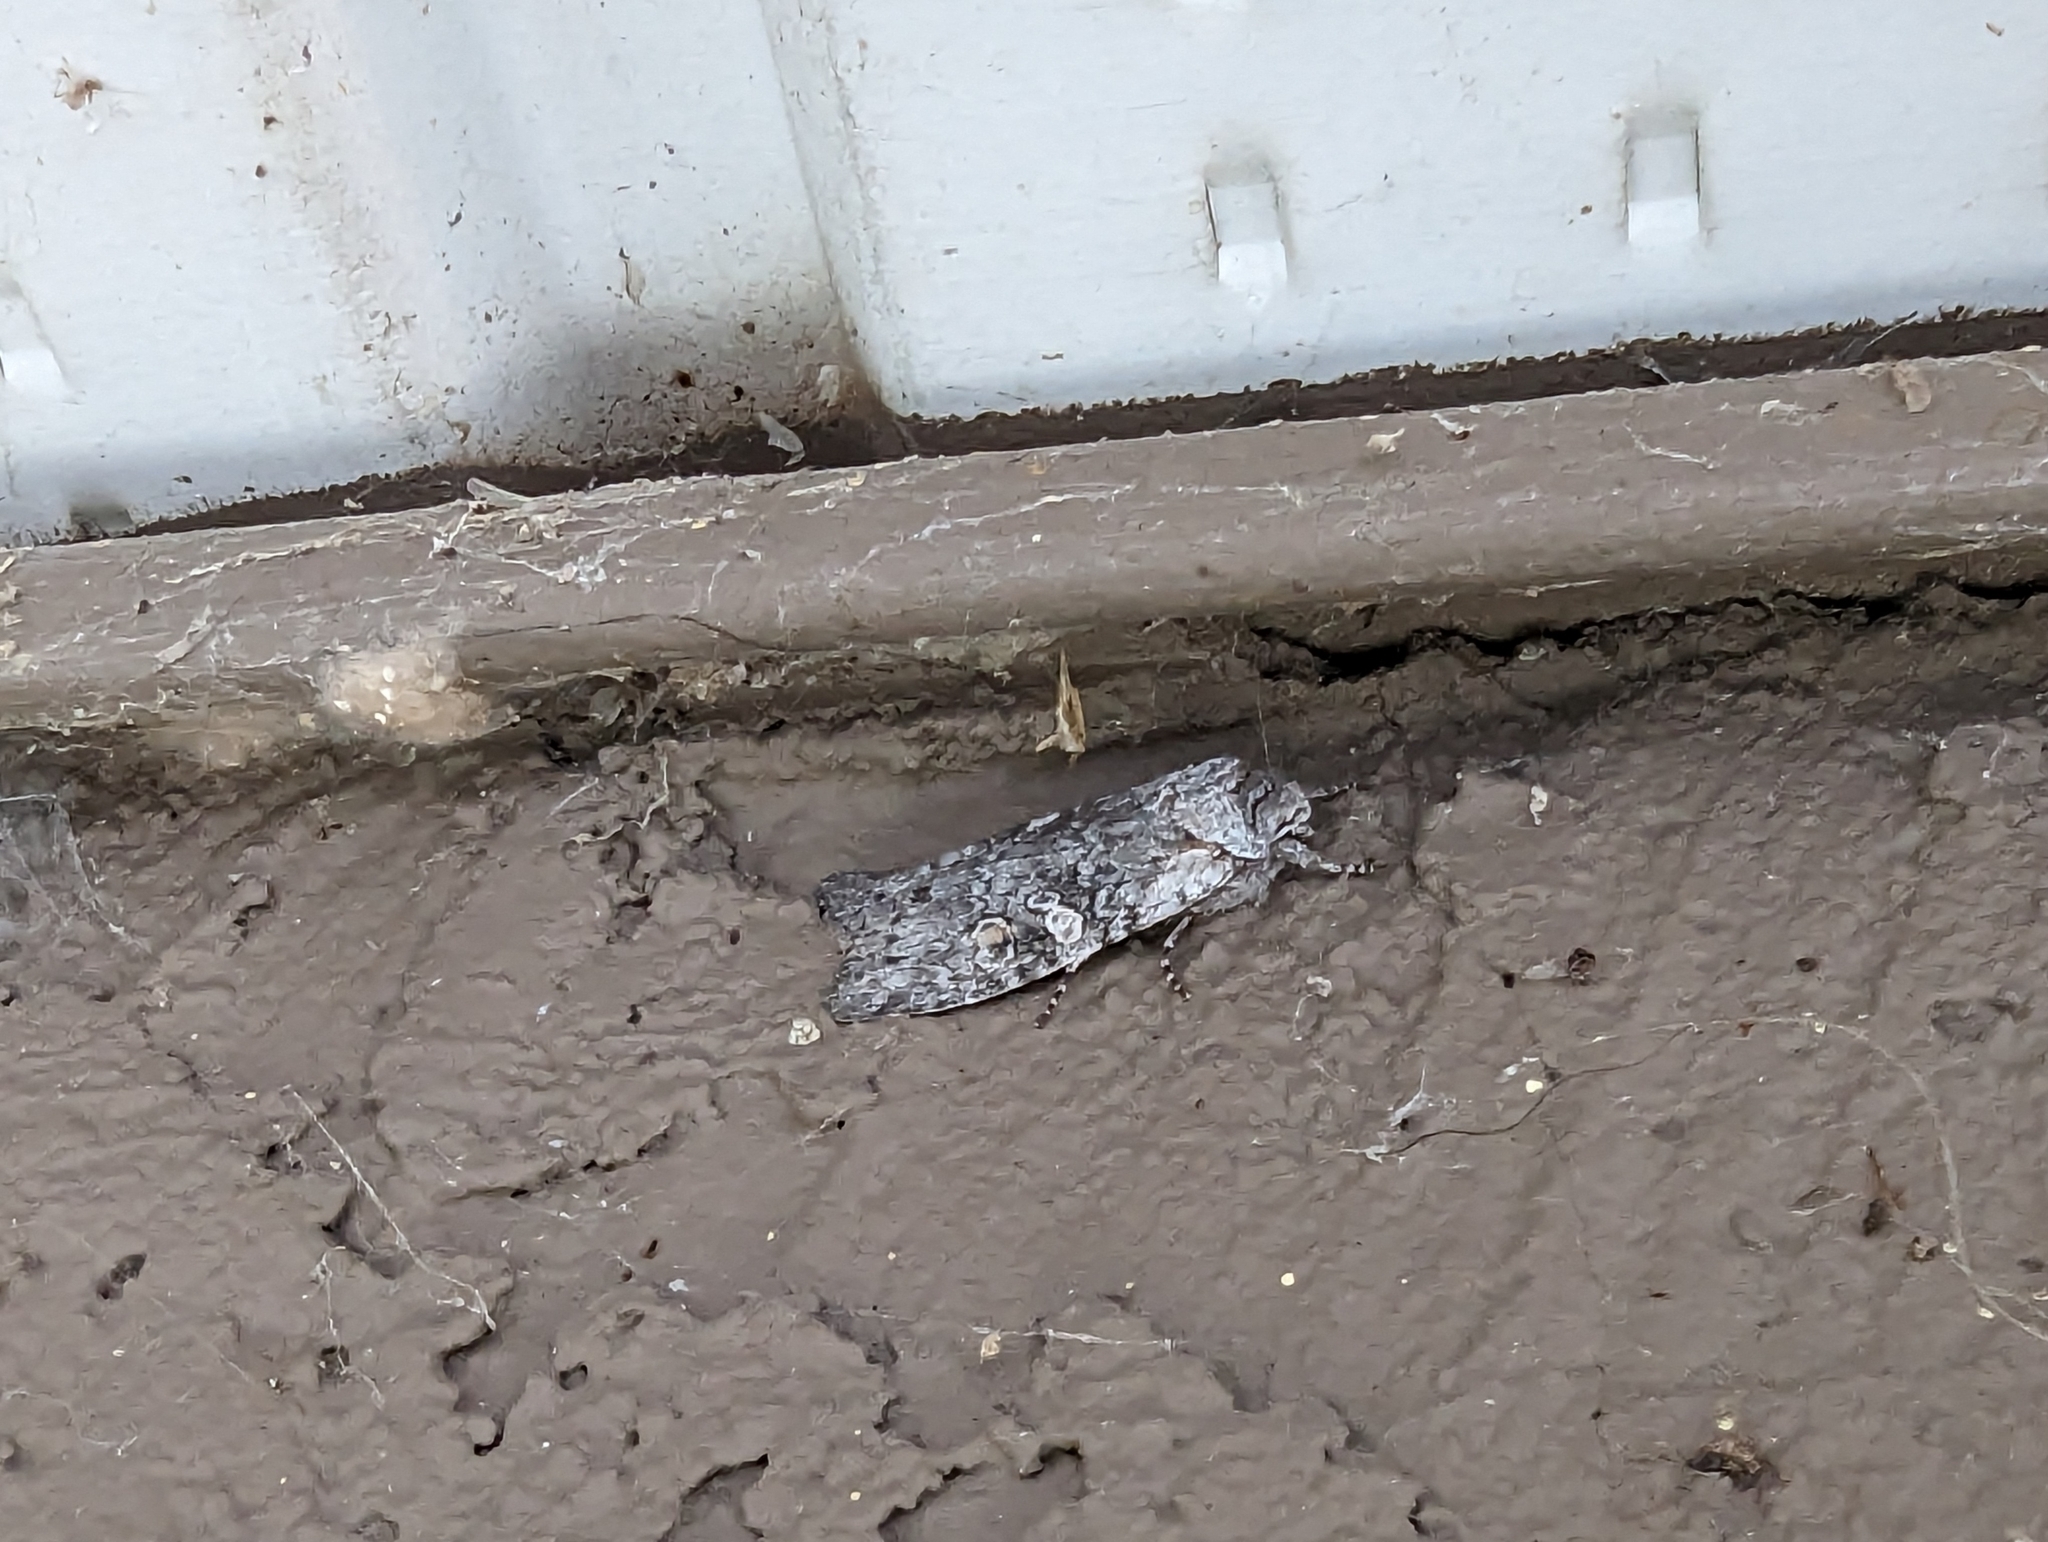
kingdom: Animalia
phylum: Arthropoda
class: Insecta
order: Lepidoptera
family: Noctuidae
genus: Lithophane
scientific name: Lithophane pertorrida
